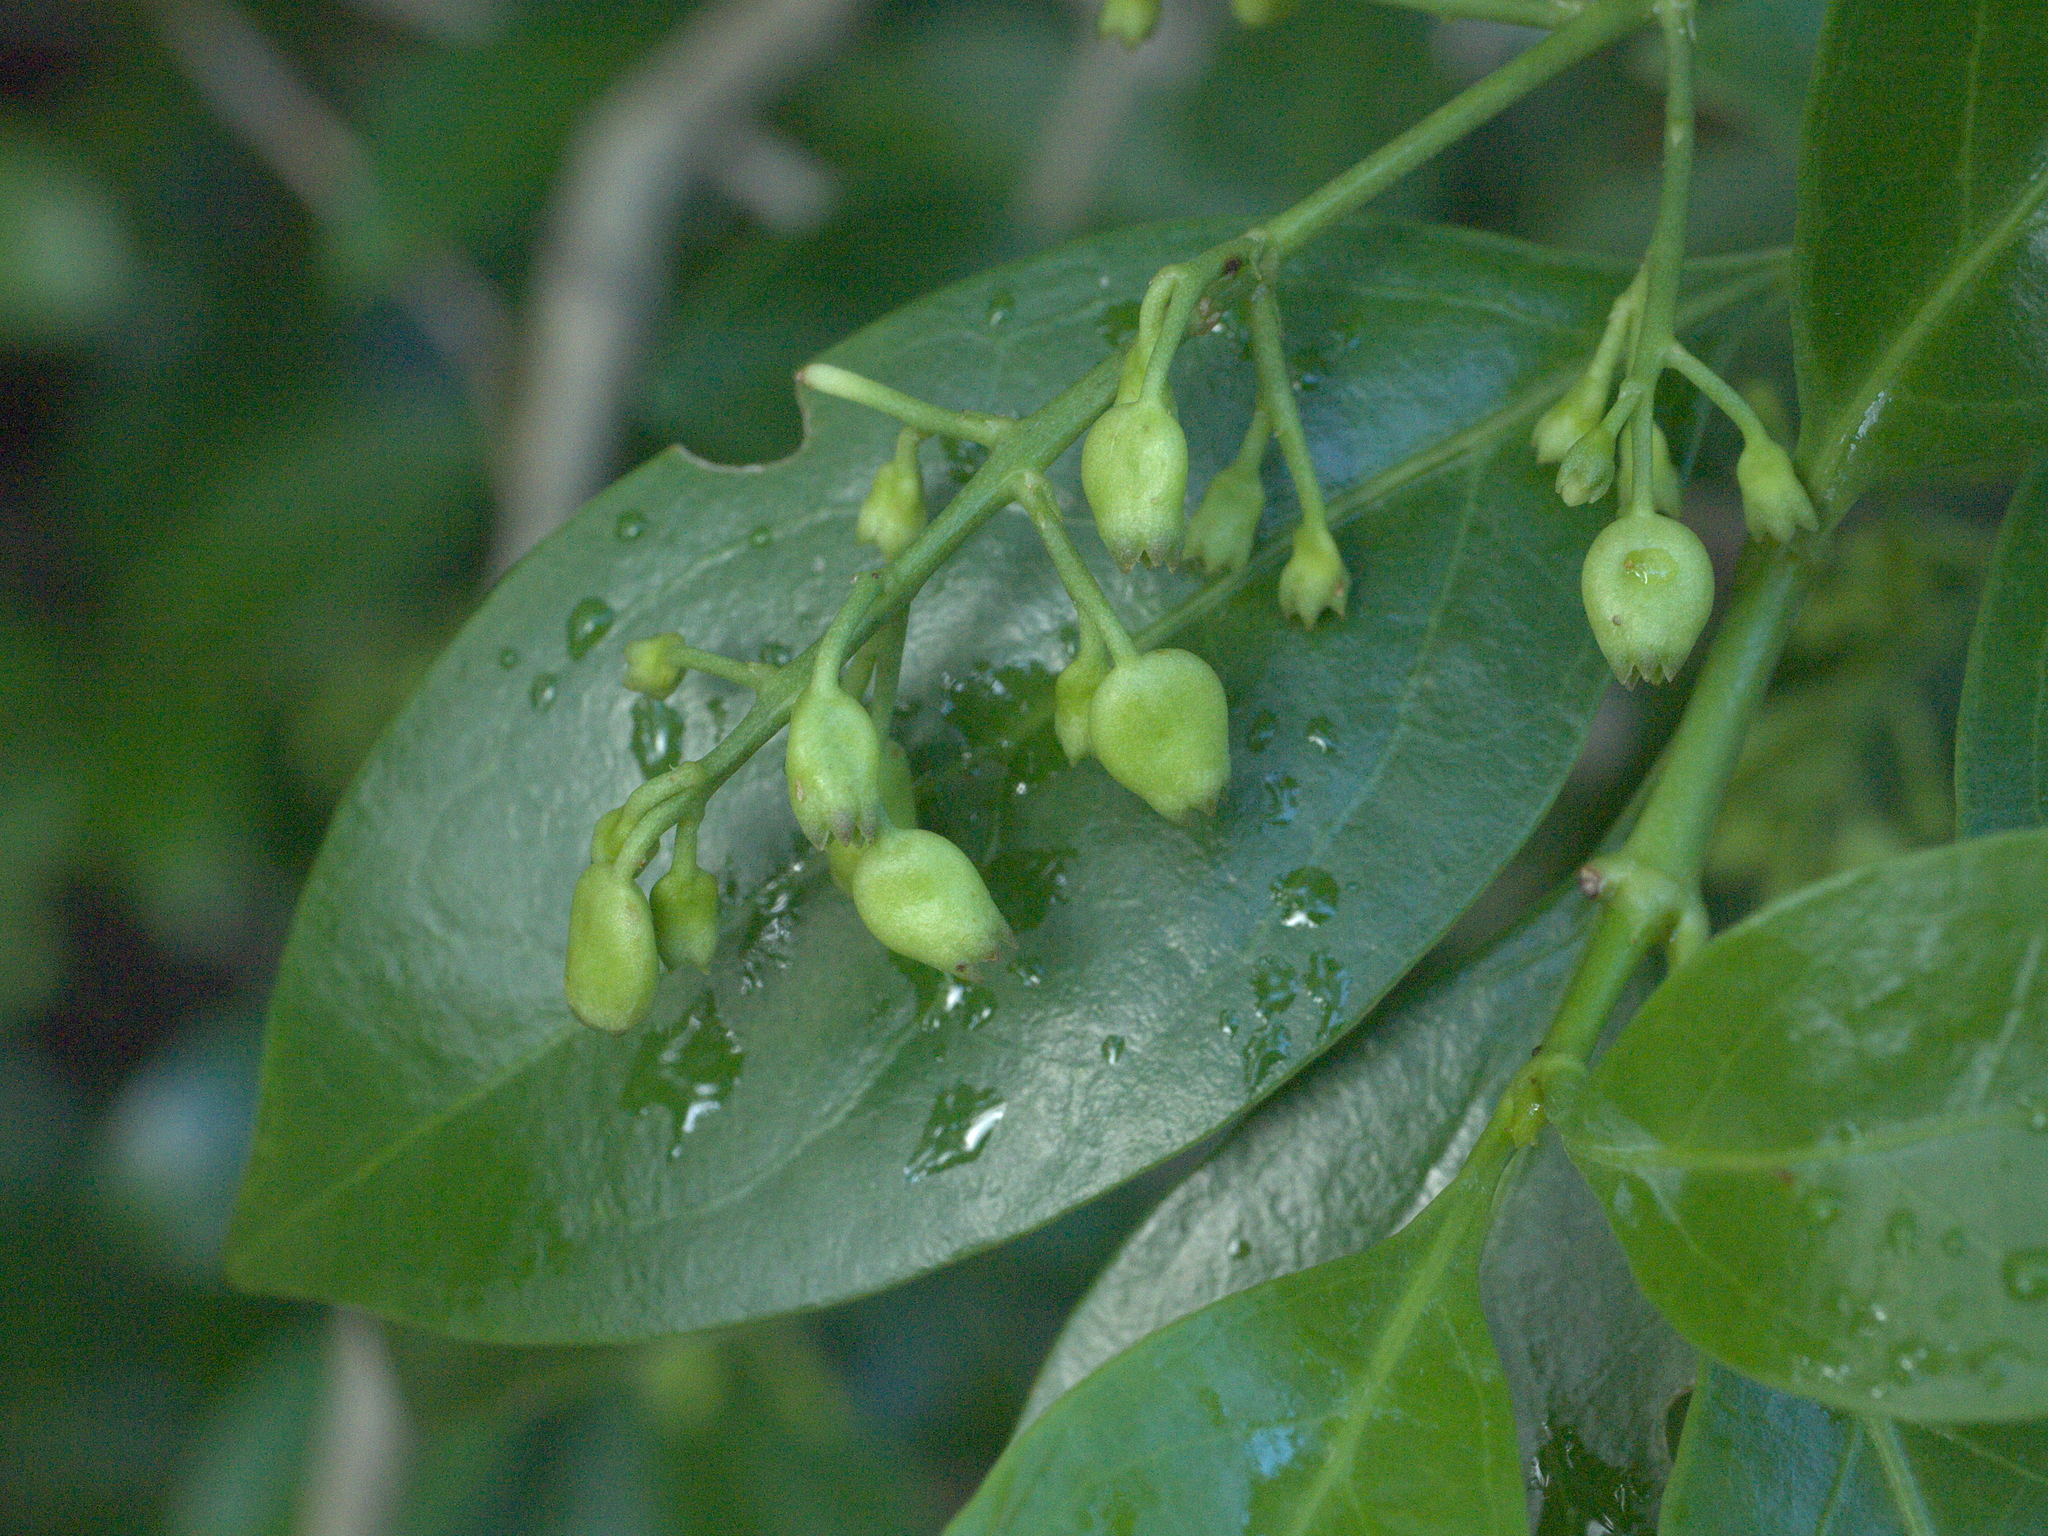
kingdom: Plantae
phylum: Tracheophyta
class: Magnoliopsida
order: Gentianales
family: Rubiaceae
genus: Chiococca
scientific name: Chiococca alba
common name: Snowberry
